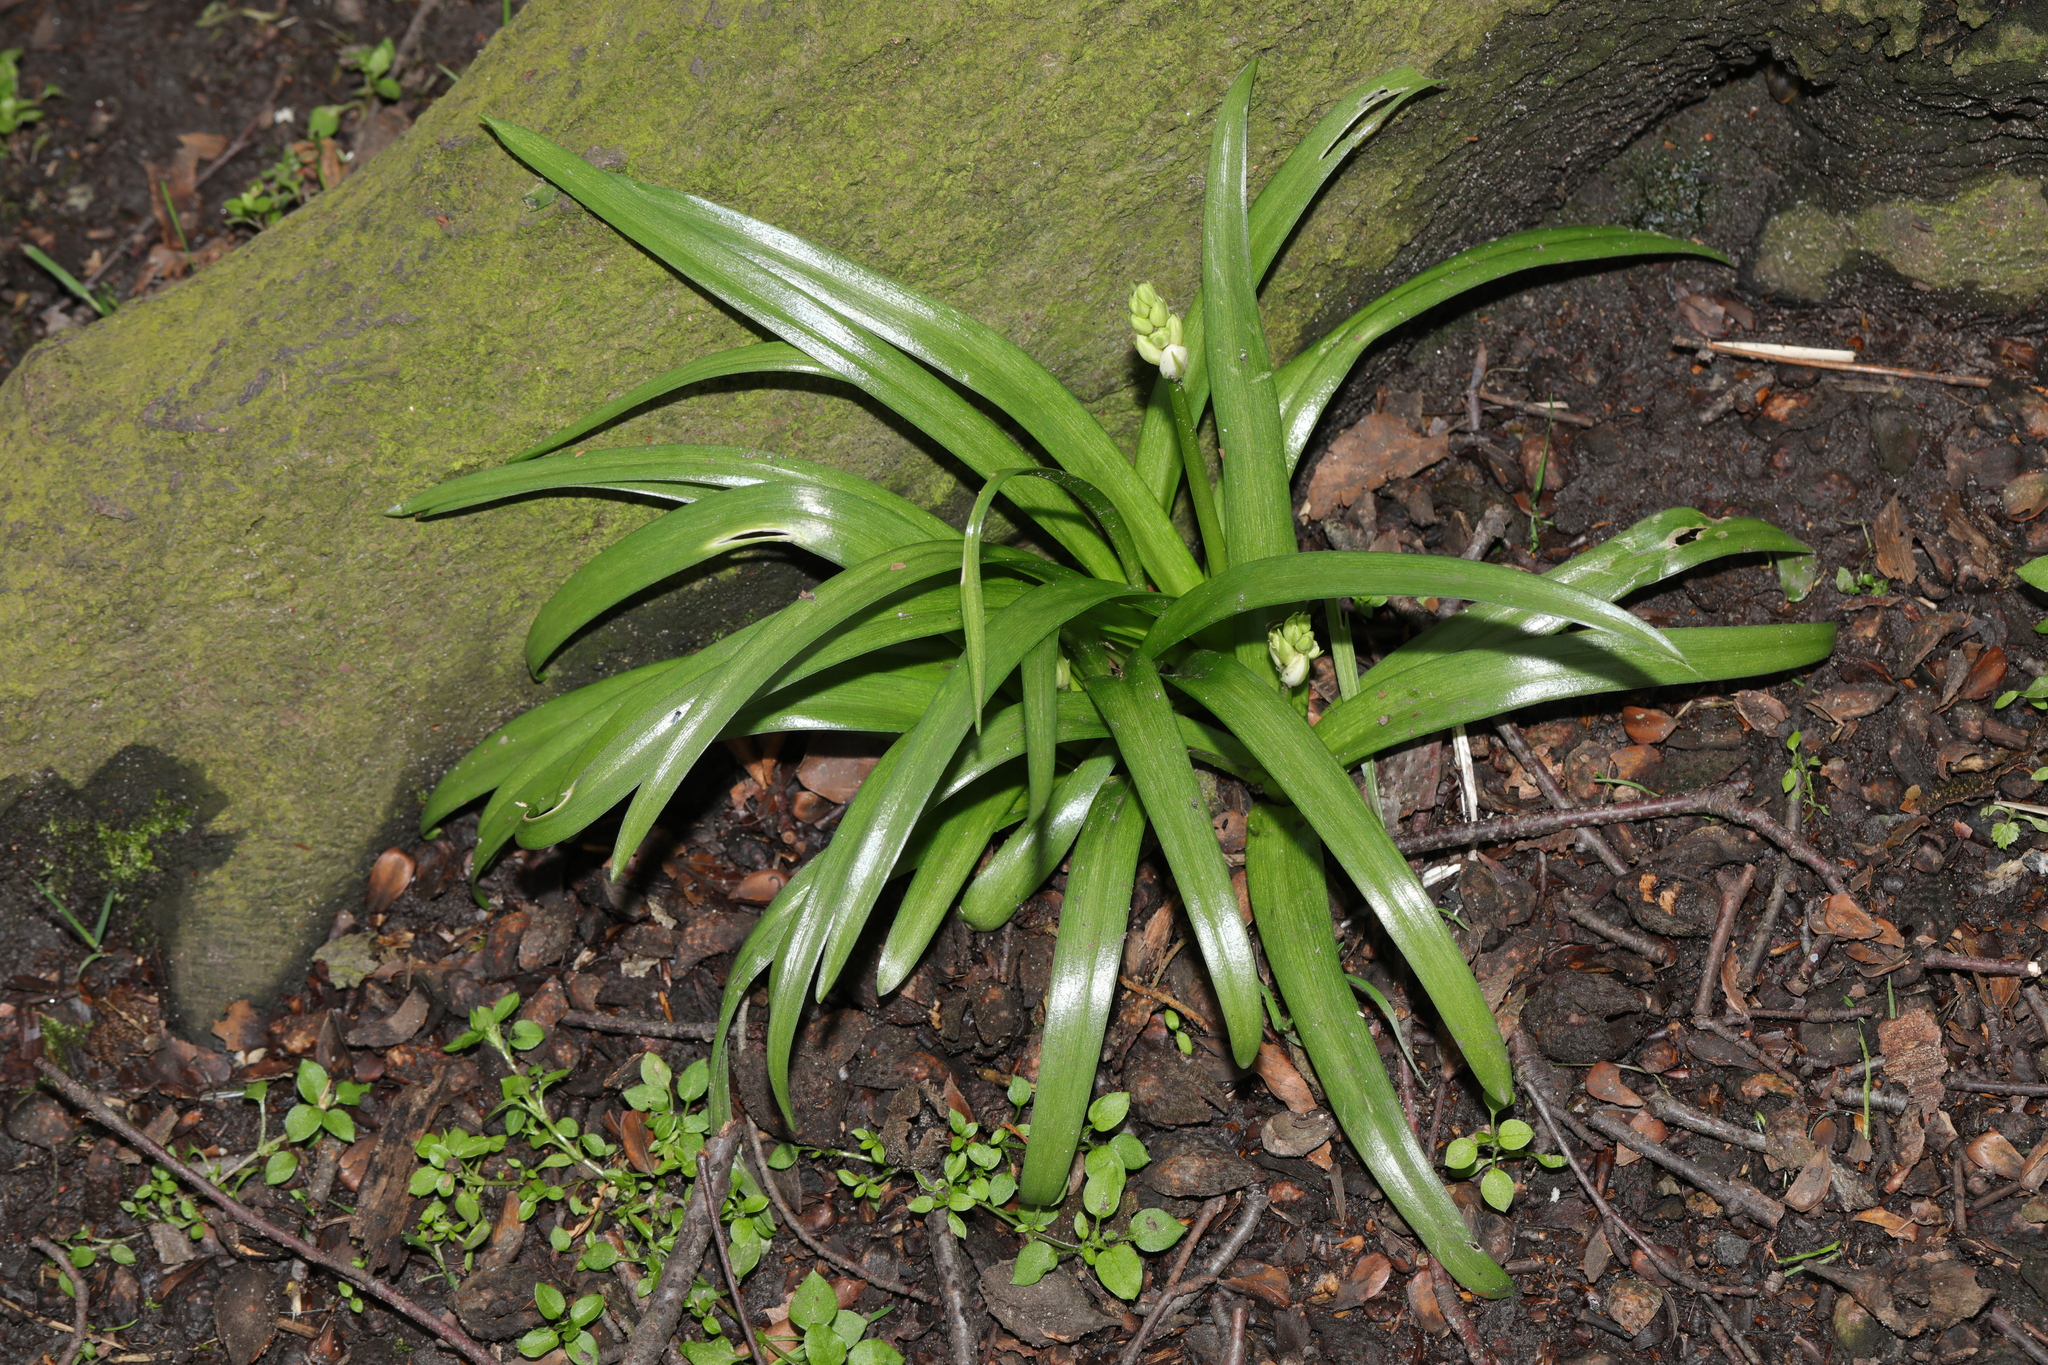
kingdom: Plantae
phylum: Tracheophyta
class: Liliopsida
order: Asparagales
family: Asparagaceae
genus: Hyacinthoides
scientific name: Hyacinthoides massartiana
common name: Hyacinthoides
